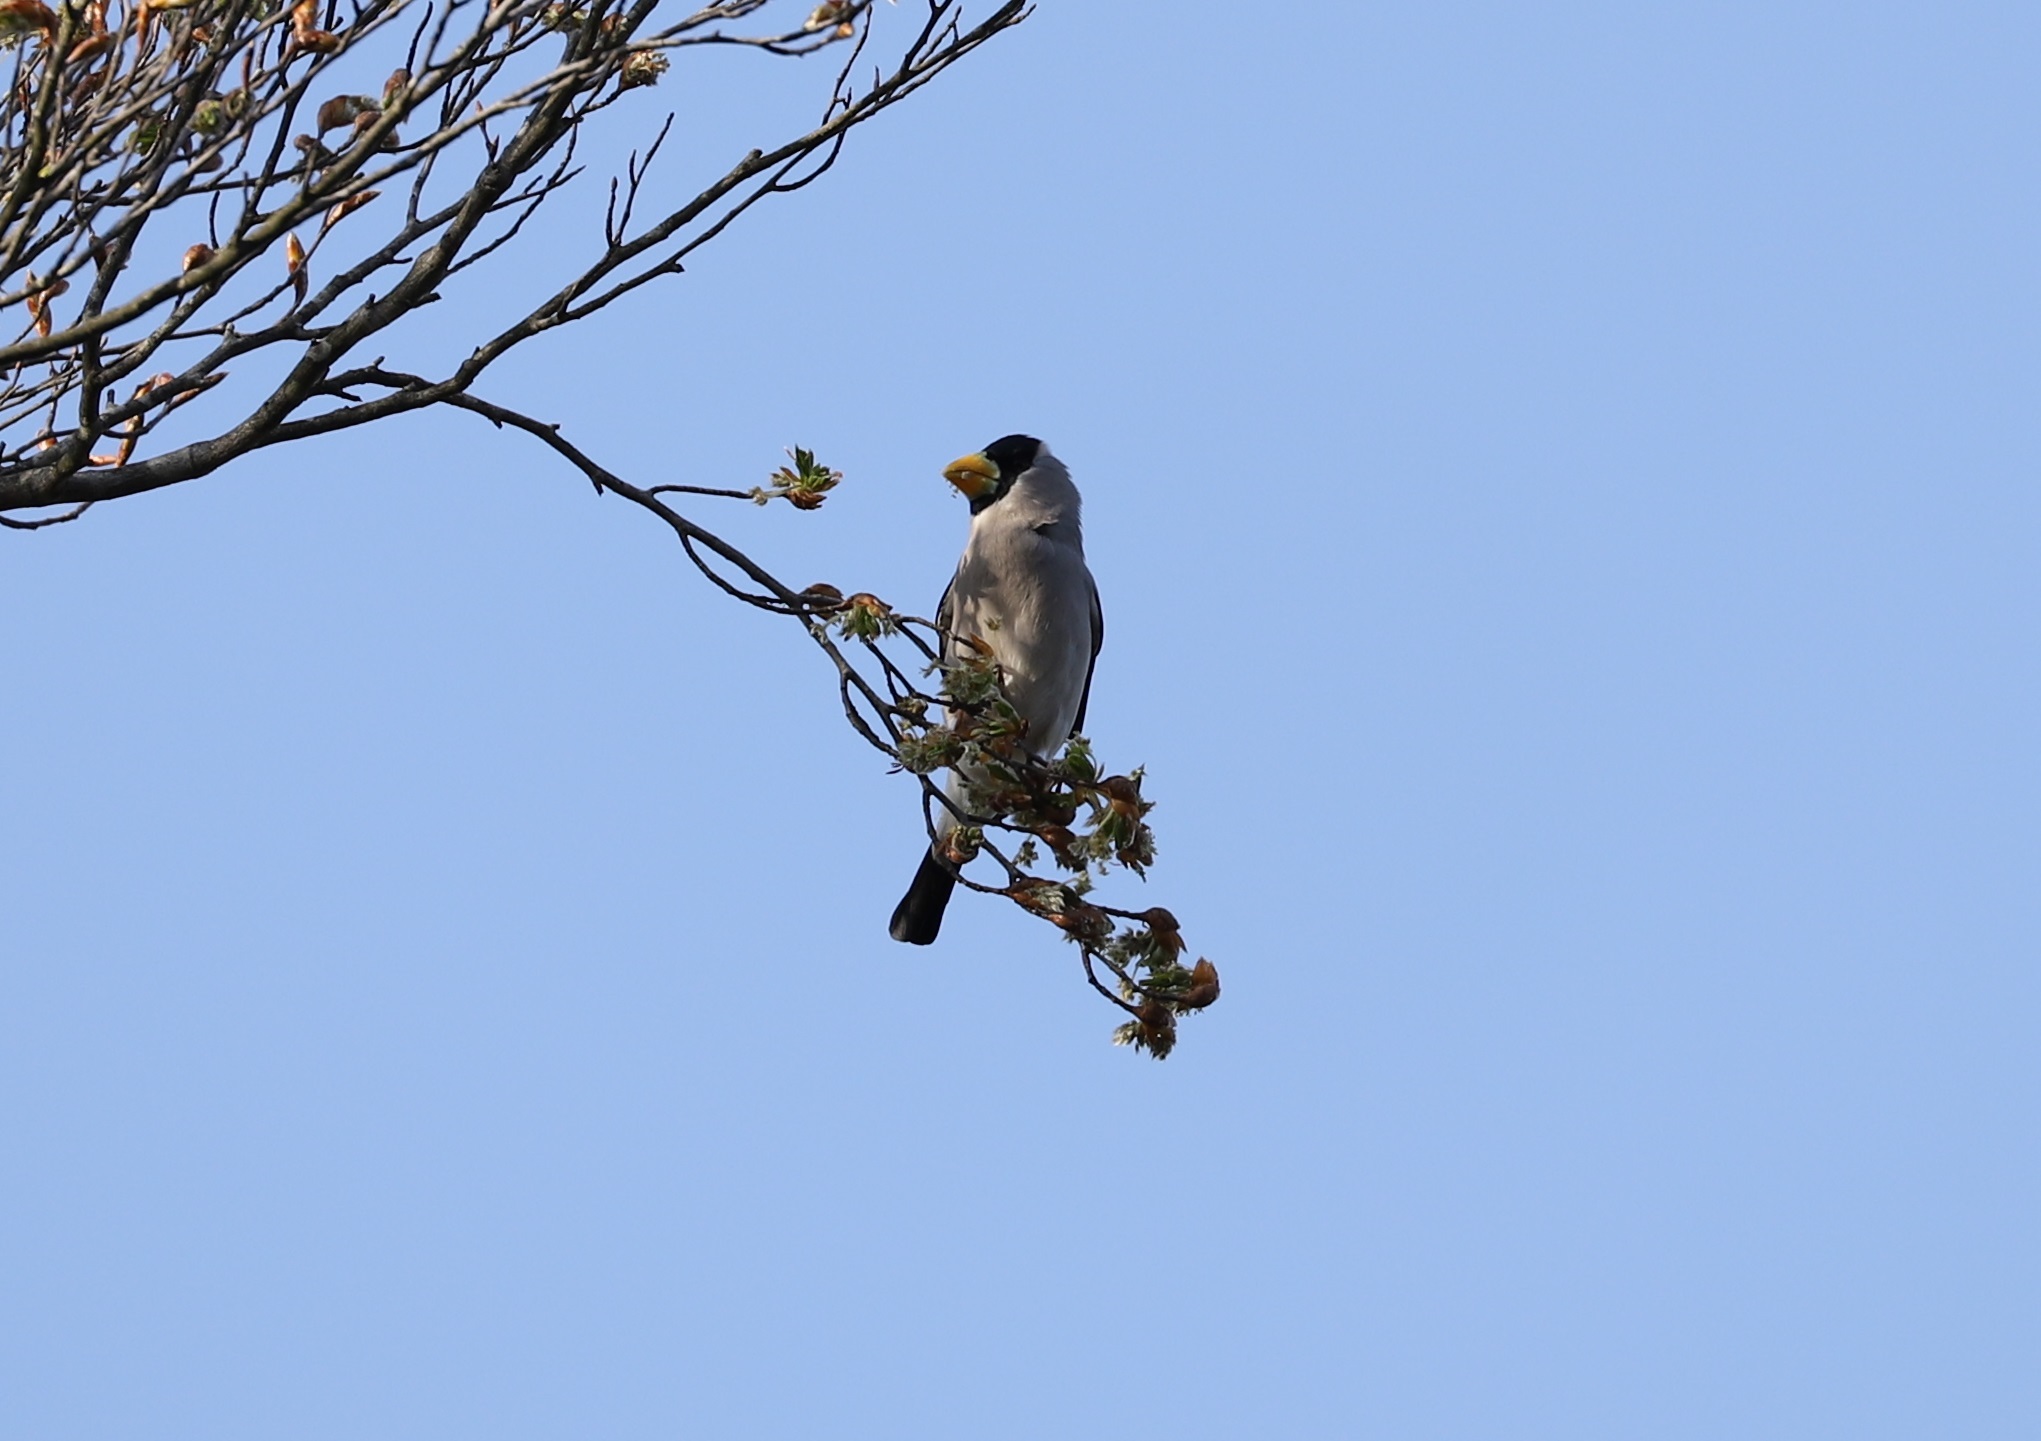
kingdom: Animalia
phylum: Chordata
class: Aves
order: Passeriformes
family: Fringillidae
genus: Eophona
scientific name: Eophona personata
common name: Japanese grosbeak
